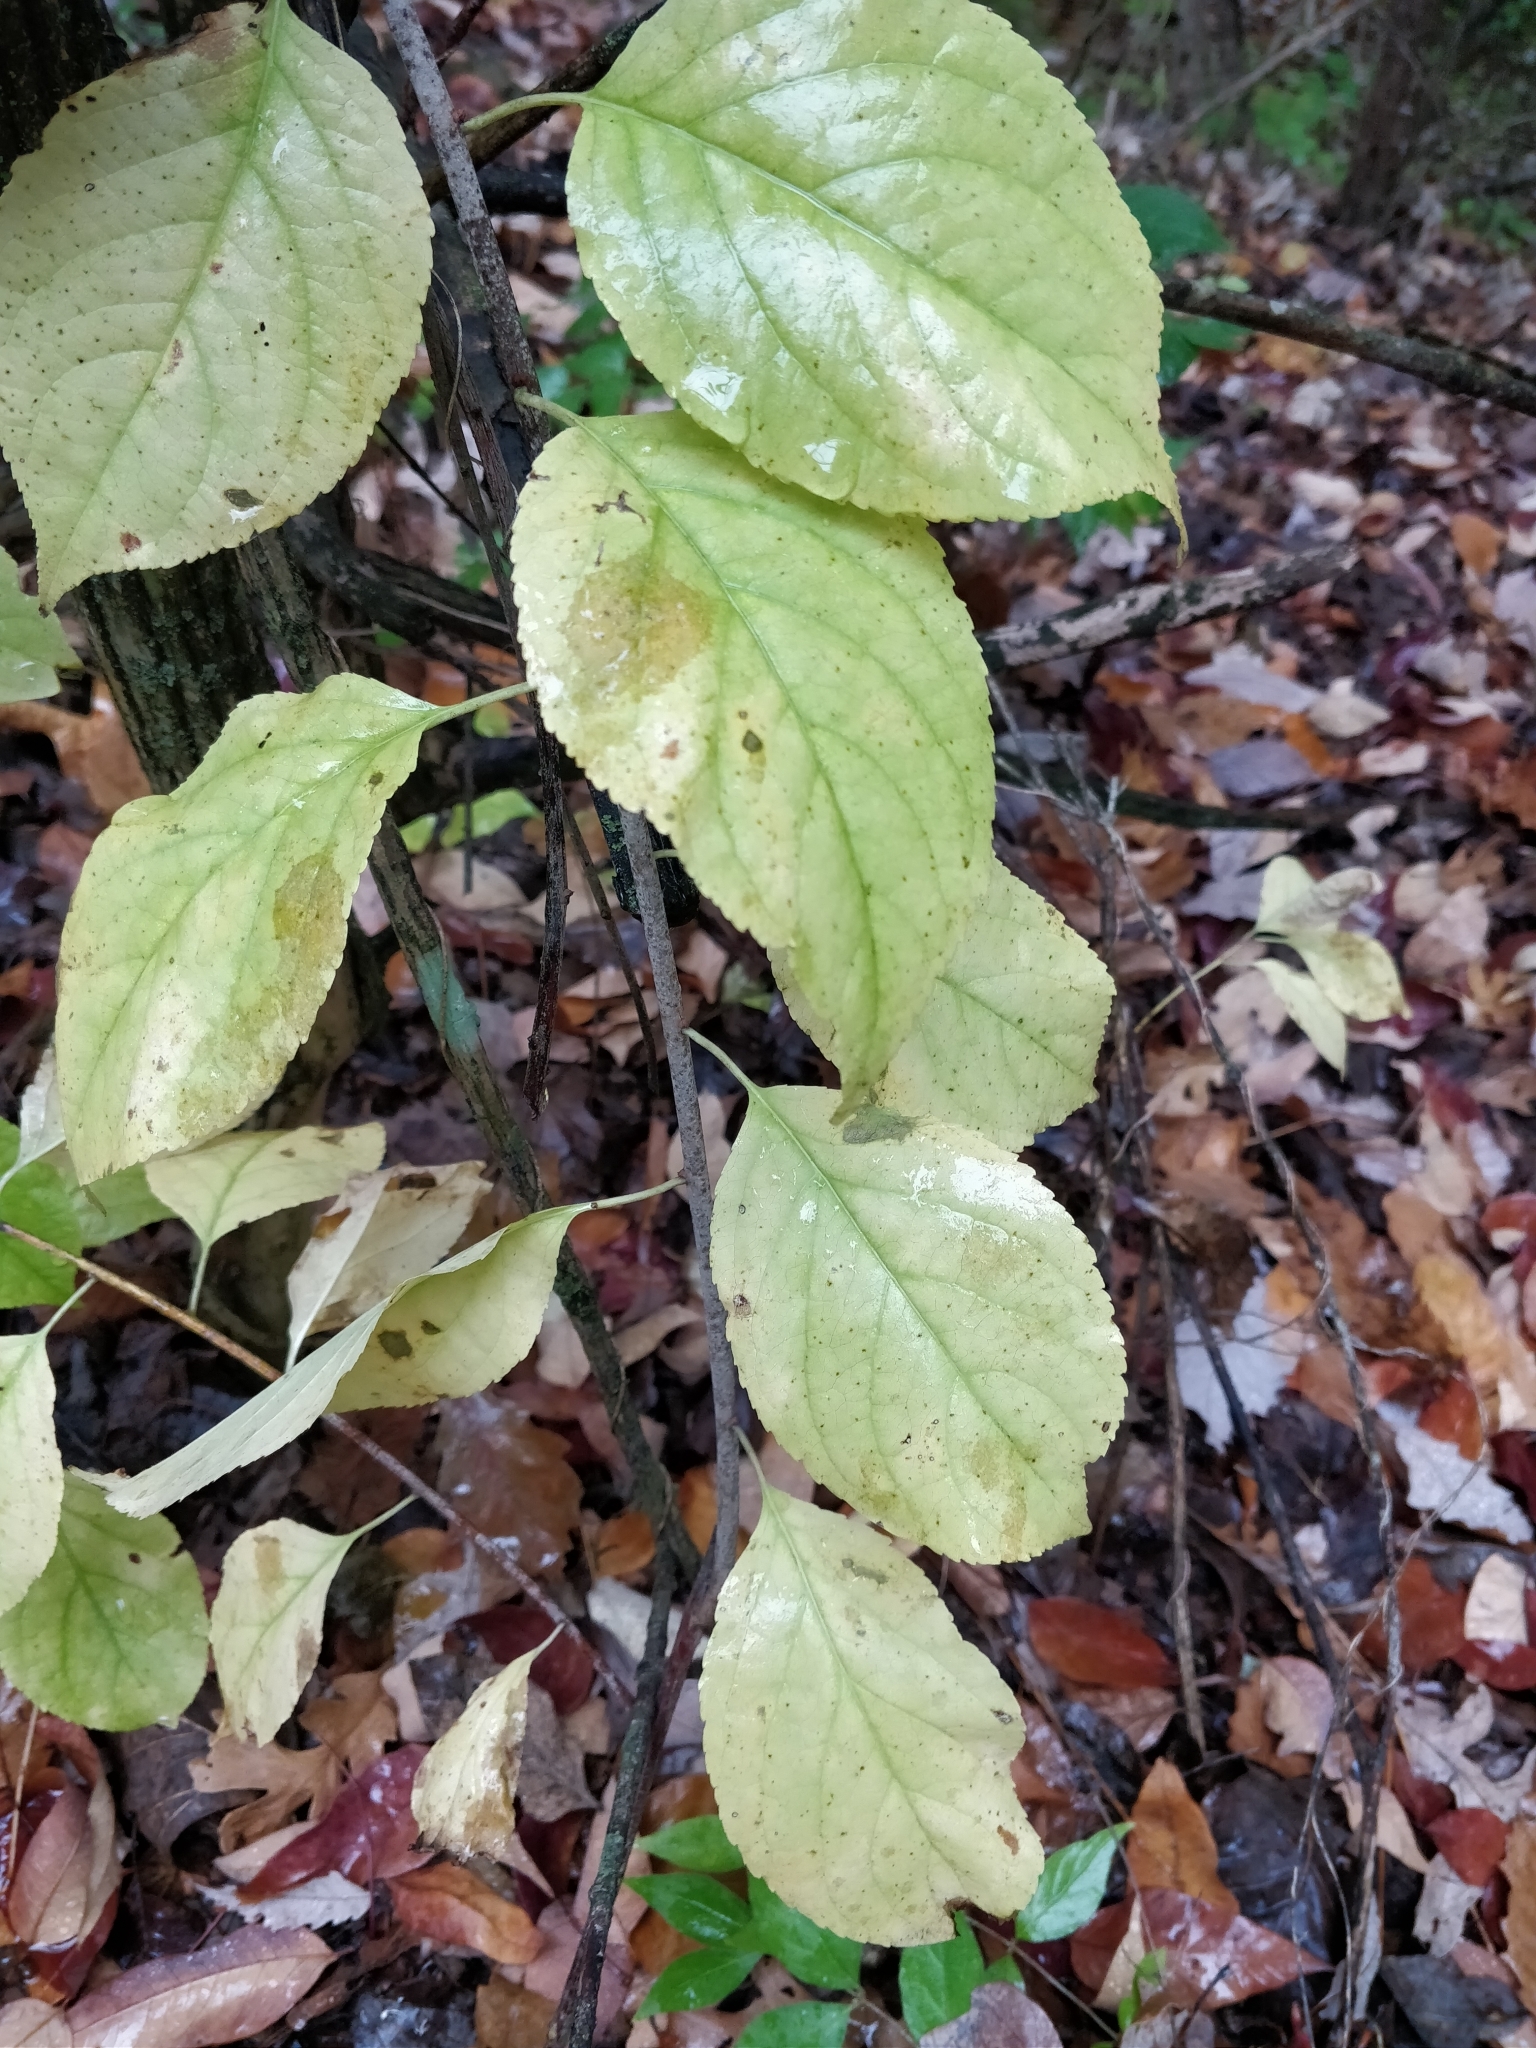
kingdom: Plantae
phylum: Tracheophyta
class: Magnoliopsida
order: Celastrales
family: Celastraceae
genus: Celastrus
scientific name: Celastrus scandens
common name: American bittersweet
